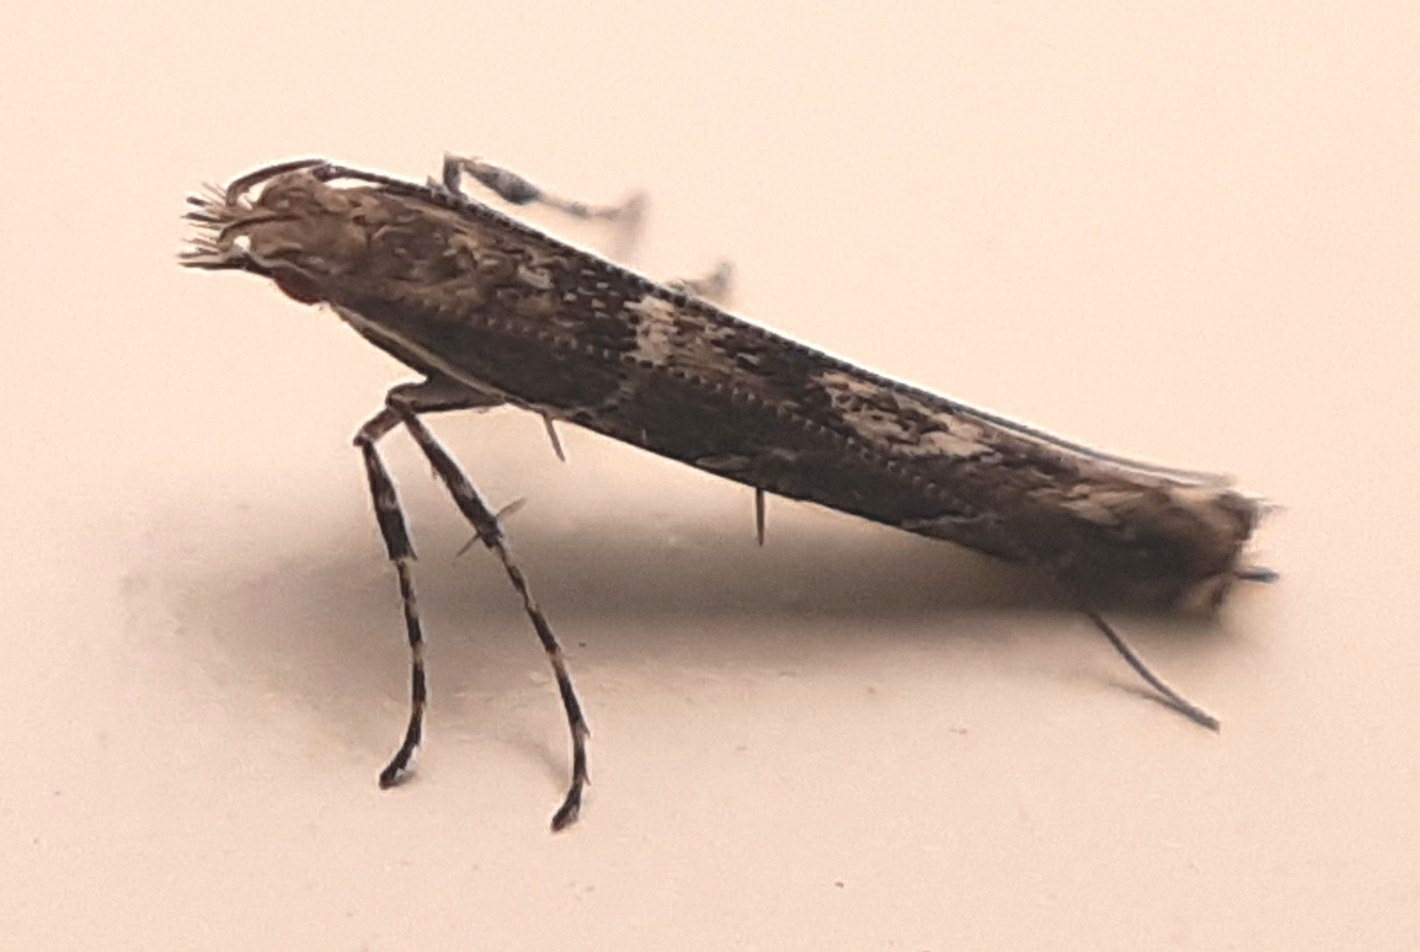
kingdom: Animalia
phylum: Arthropoda
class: Insecta
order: Lepidoptera
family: Gracillariidae
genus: Acrocercops
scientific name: Acrocercops brongniardella
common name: Brown oak slender
